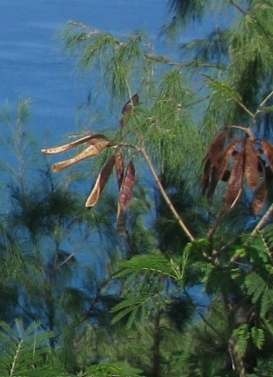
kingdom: Plantae
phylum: Tracheophyta
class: Magnoliopsida
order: Fabales
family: Fabaceae
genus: Leucaena
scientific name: Leucaena leucocephala
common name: White leadtree
